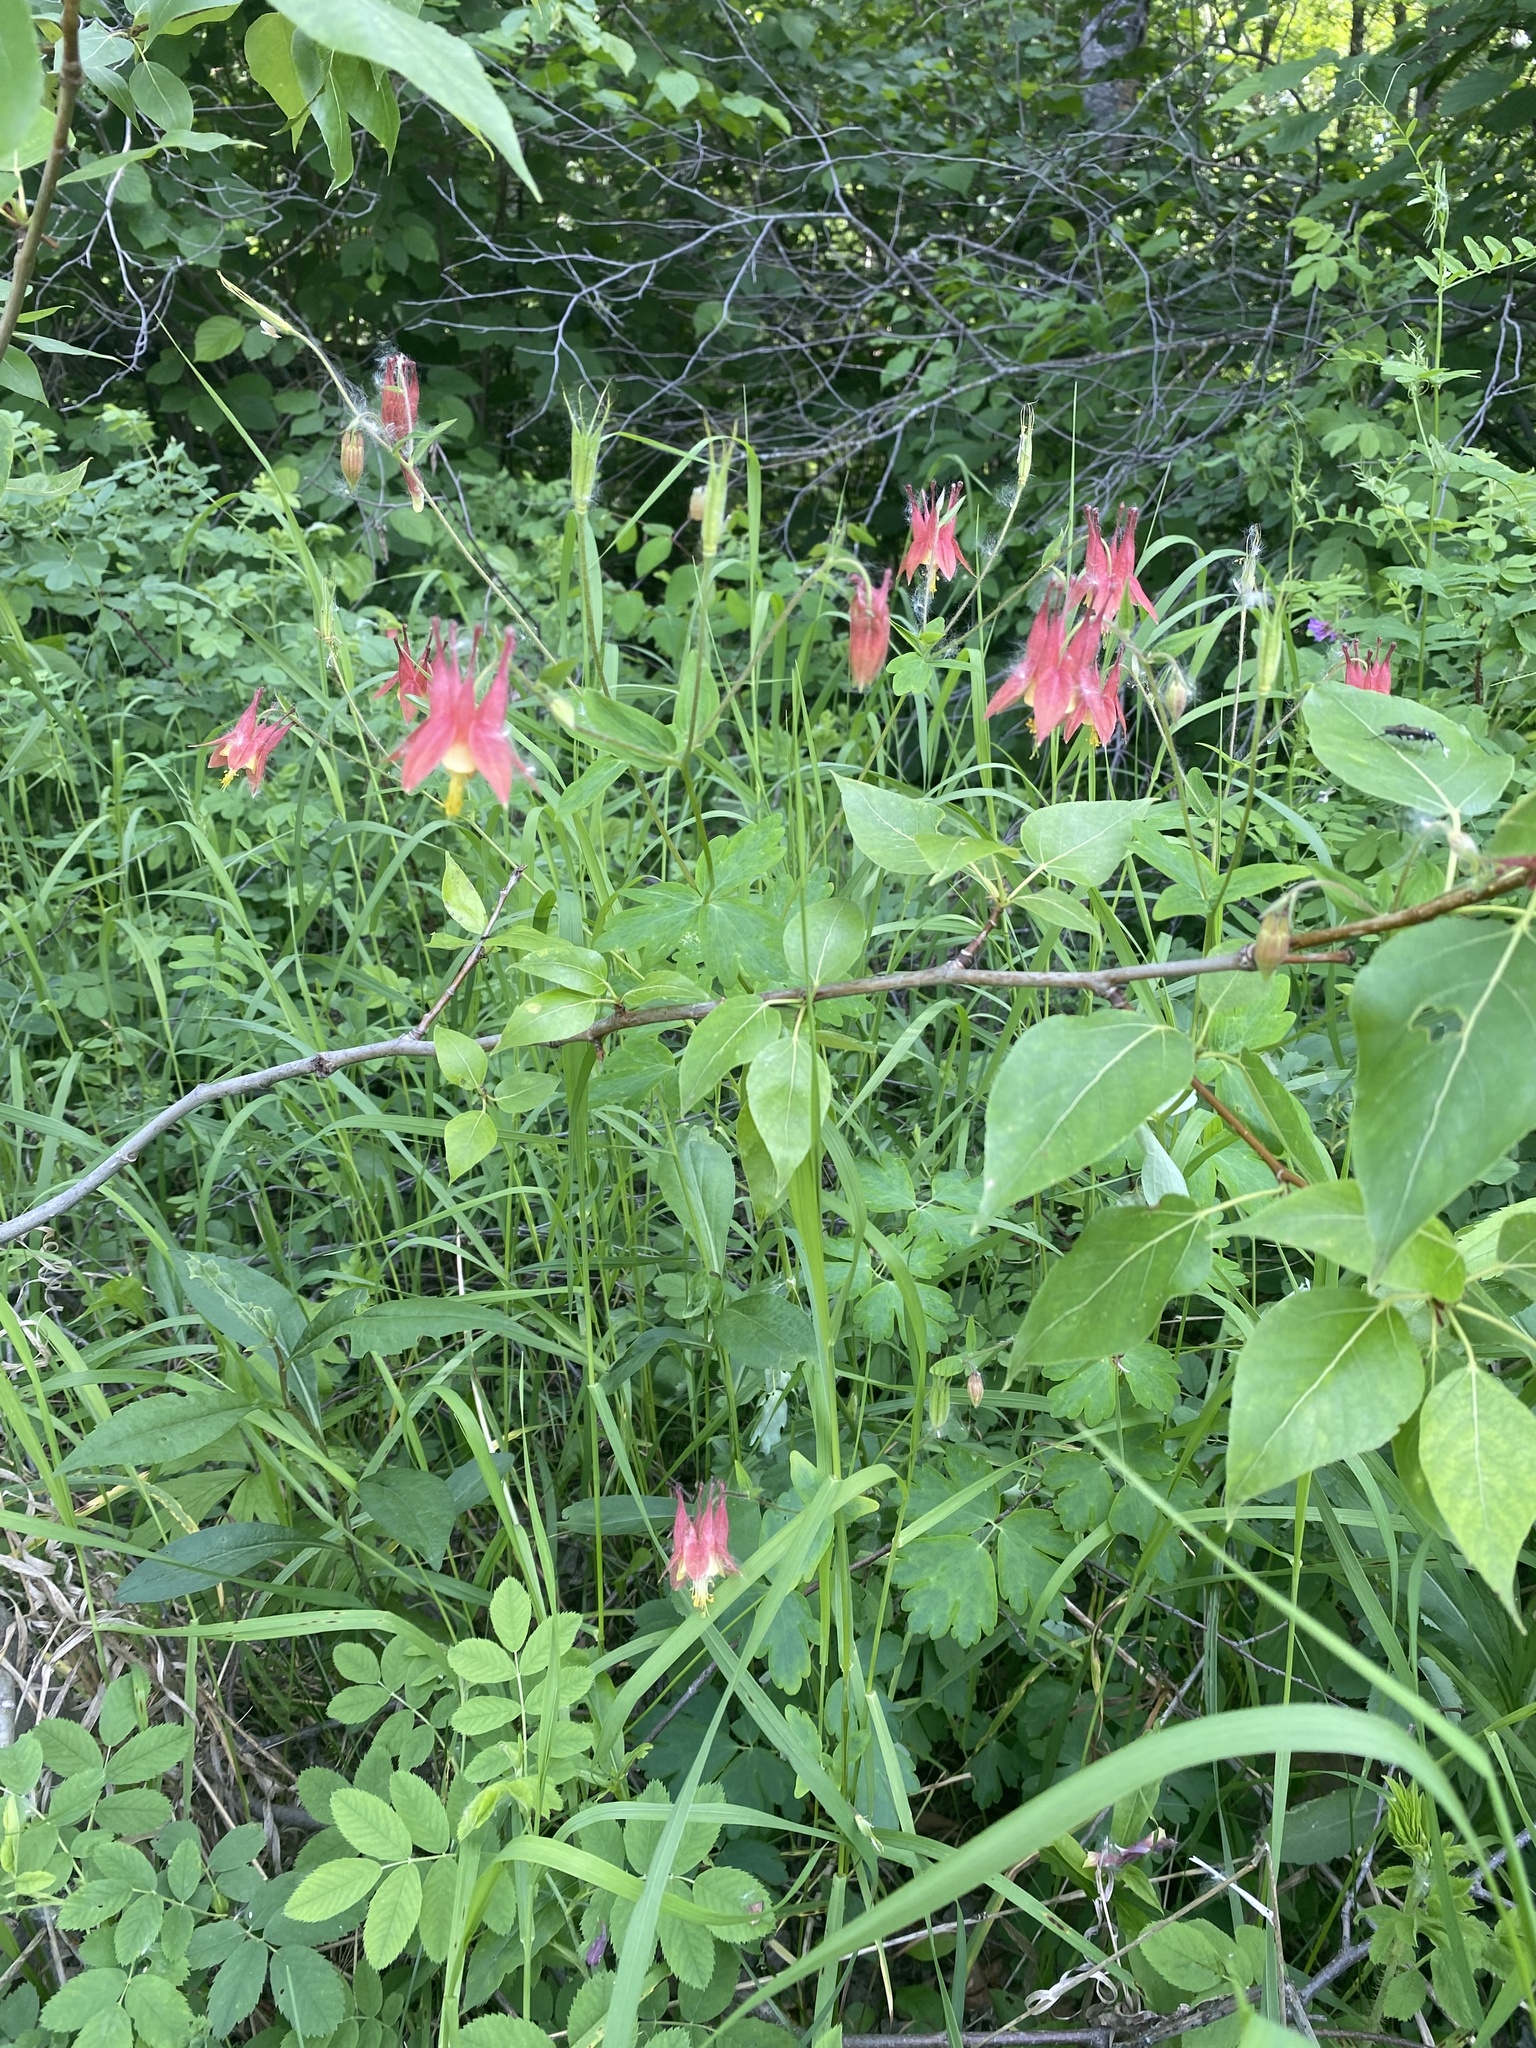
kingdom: Plantae
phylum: Tracheophyta
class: Magnoliopsida
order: Ranunculales
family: Ranunculaceae
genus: Aquilegia
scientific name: Aquilegia canadensis
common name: American columbine
